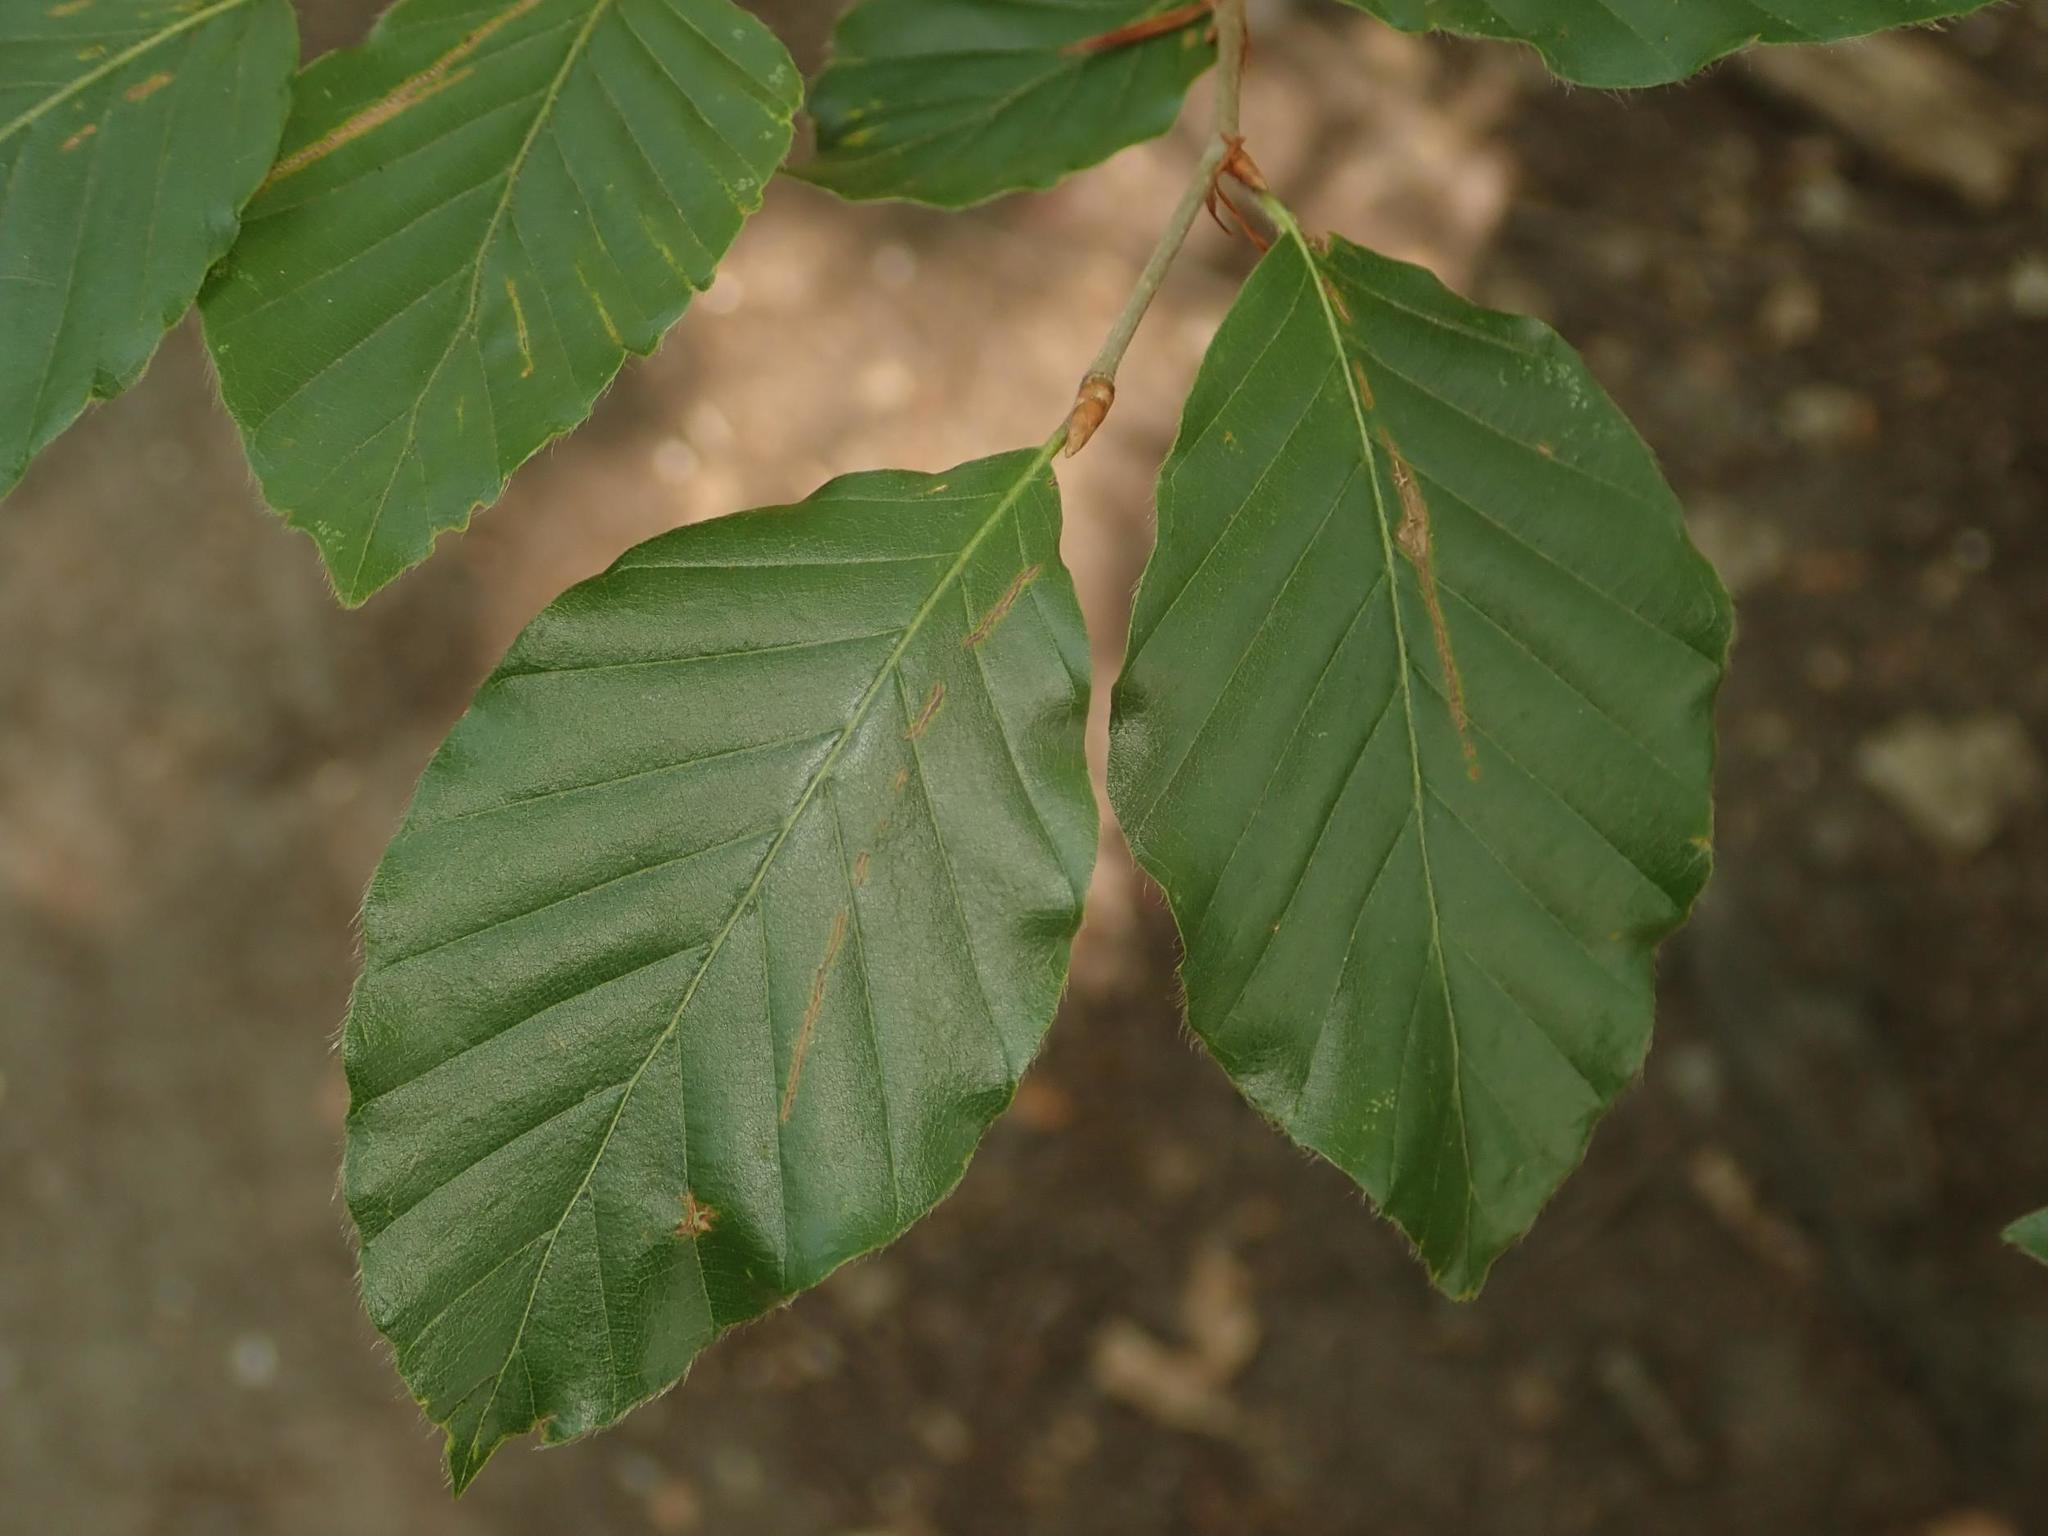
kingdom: Plantae
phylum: Tracheophyta
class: Magnoliopsida
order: Fagales
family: Fagaceae
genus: Fagus
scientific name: Fagus sylvatica
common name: Beech
